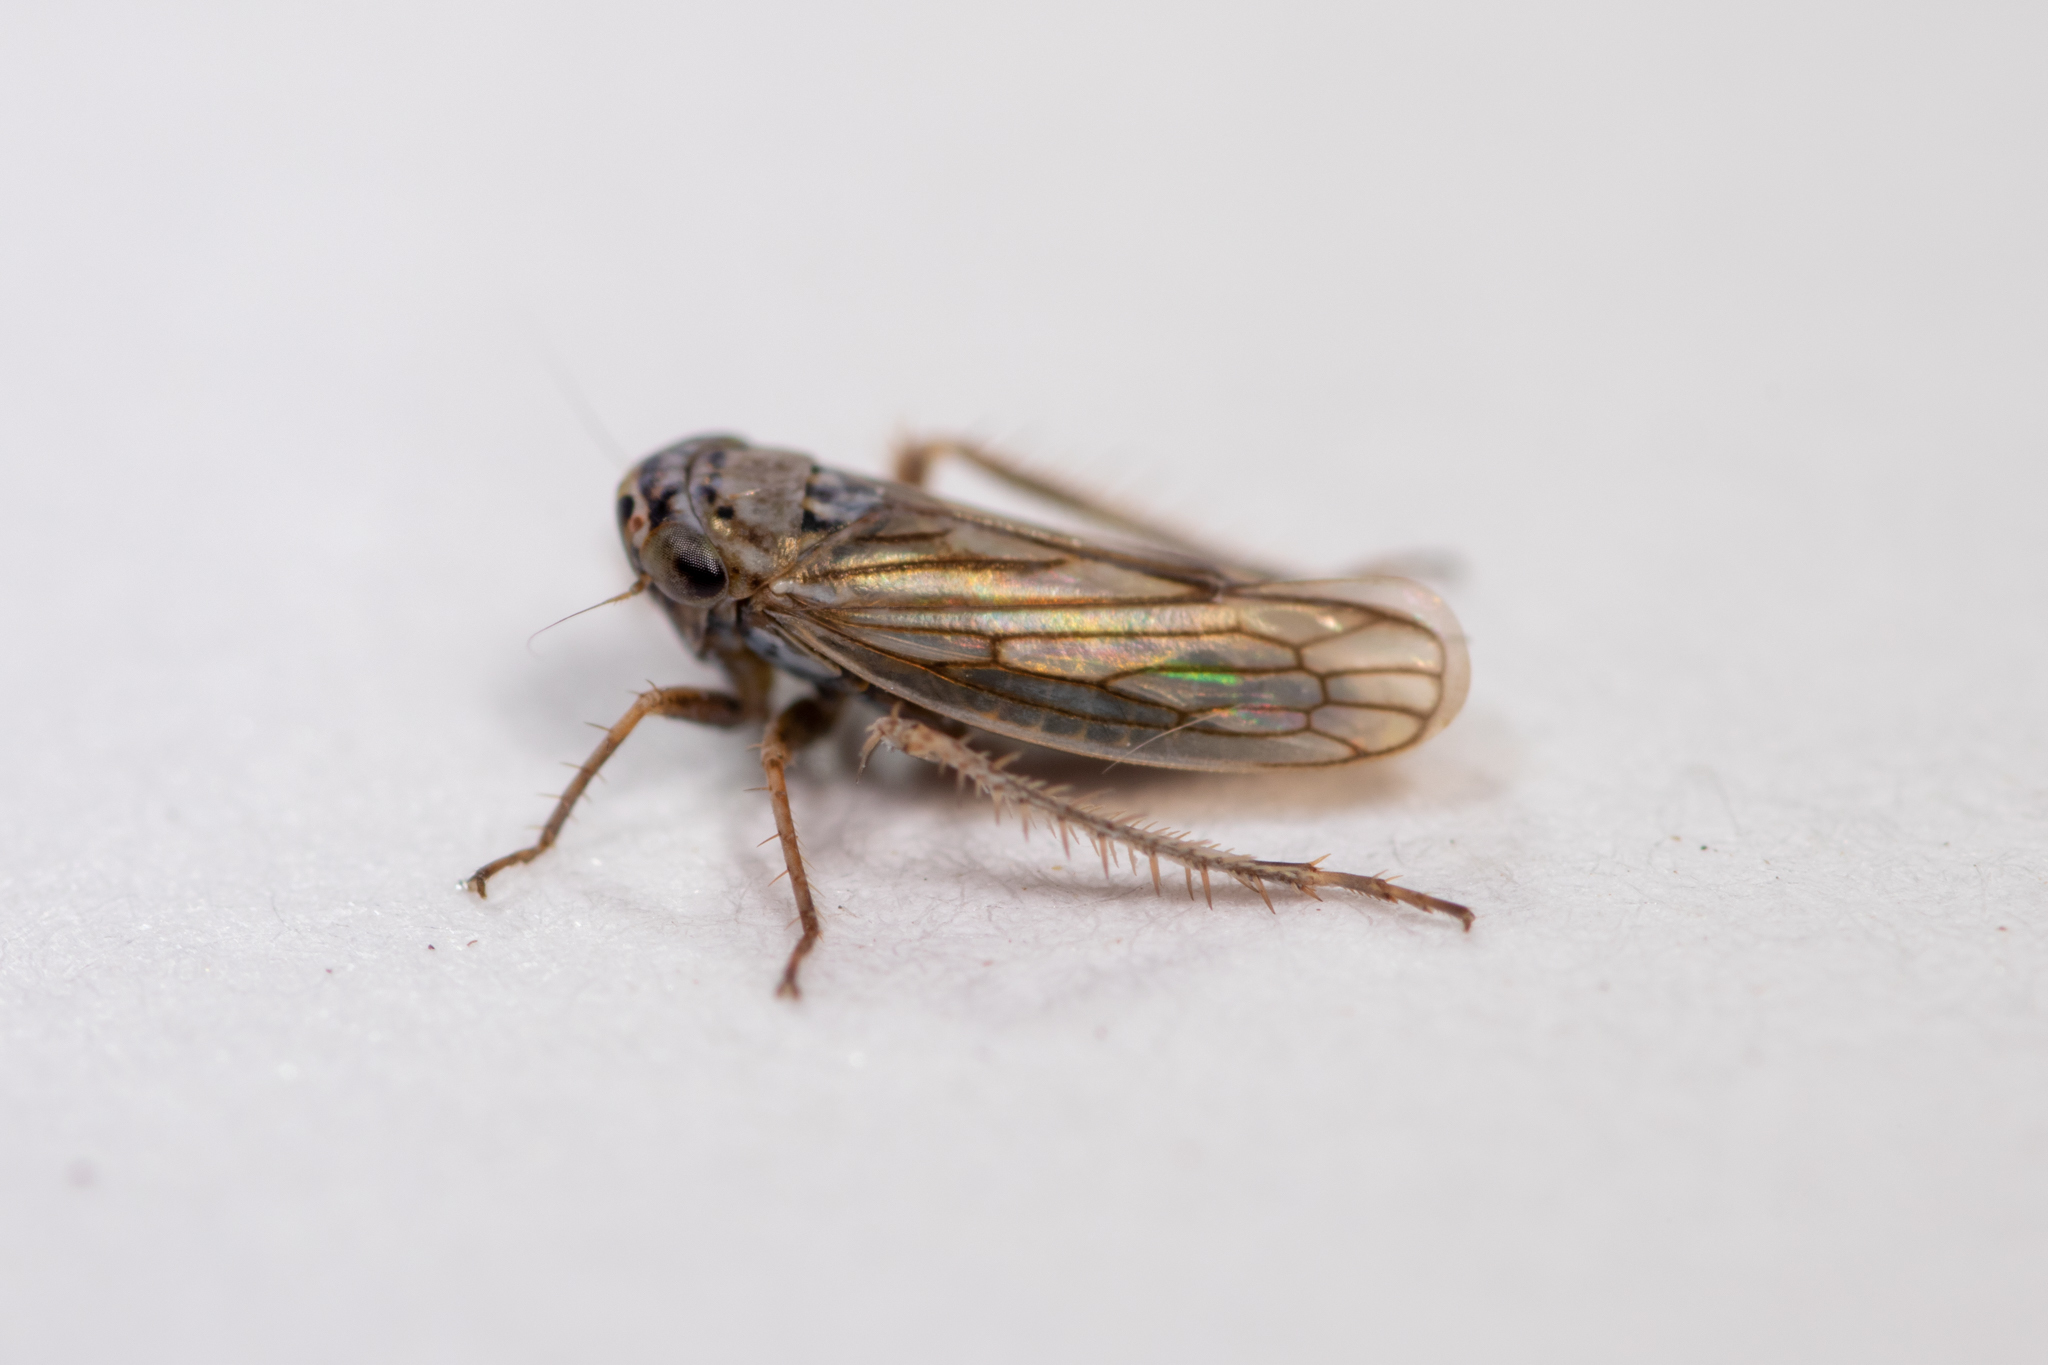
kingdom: Animalia
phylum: Arthropoda
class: Insecta
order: Hemiptera
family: Cicadellidae
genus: Exitianus
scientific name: Exitianus exitiosus
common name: Gray lawn leafhopper
